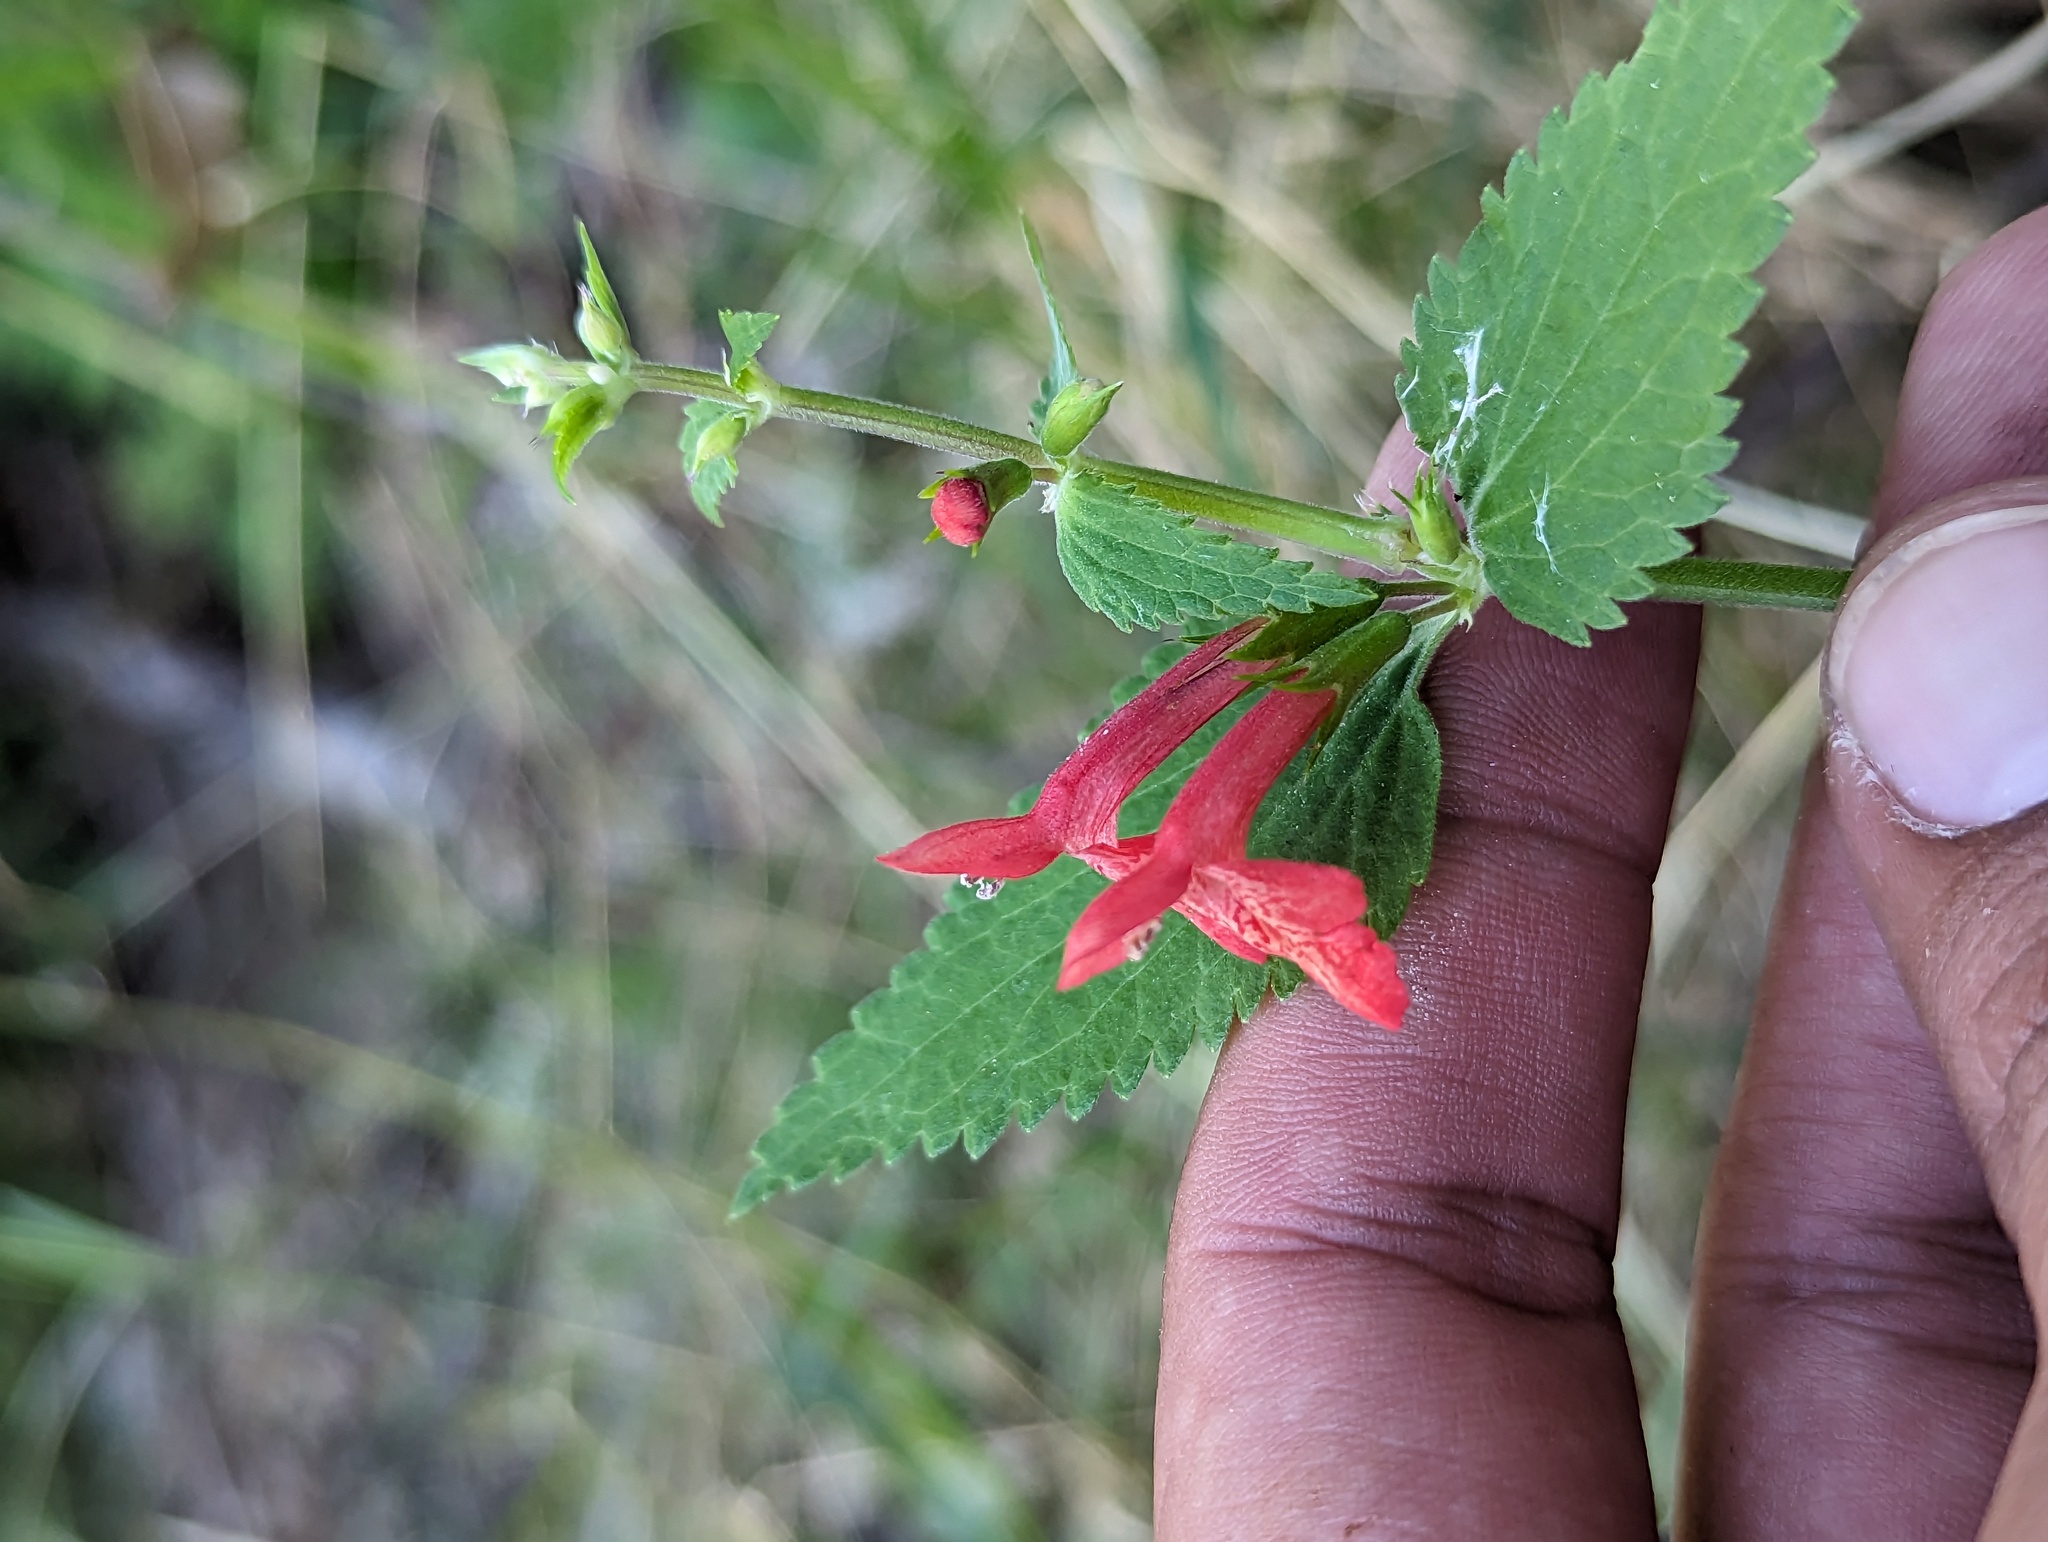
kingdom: Plantae
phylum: Tracheophyta
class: Magnoliopsida
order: Lamiales
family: Lamiaceae
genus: Stachys
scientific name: Stachys coccinea
